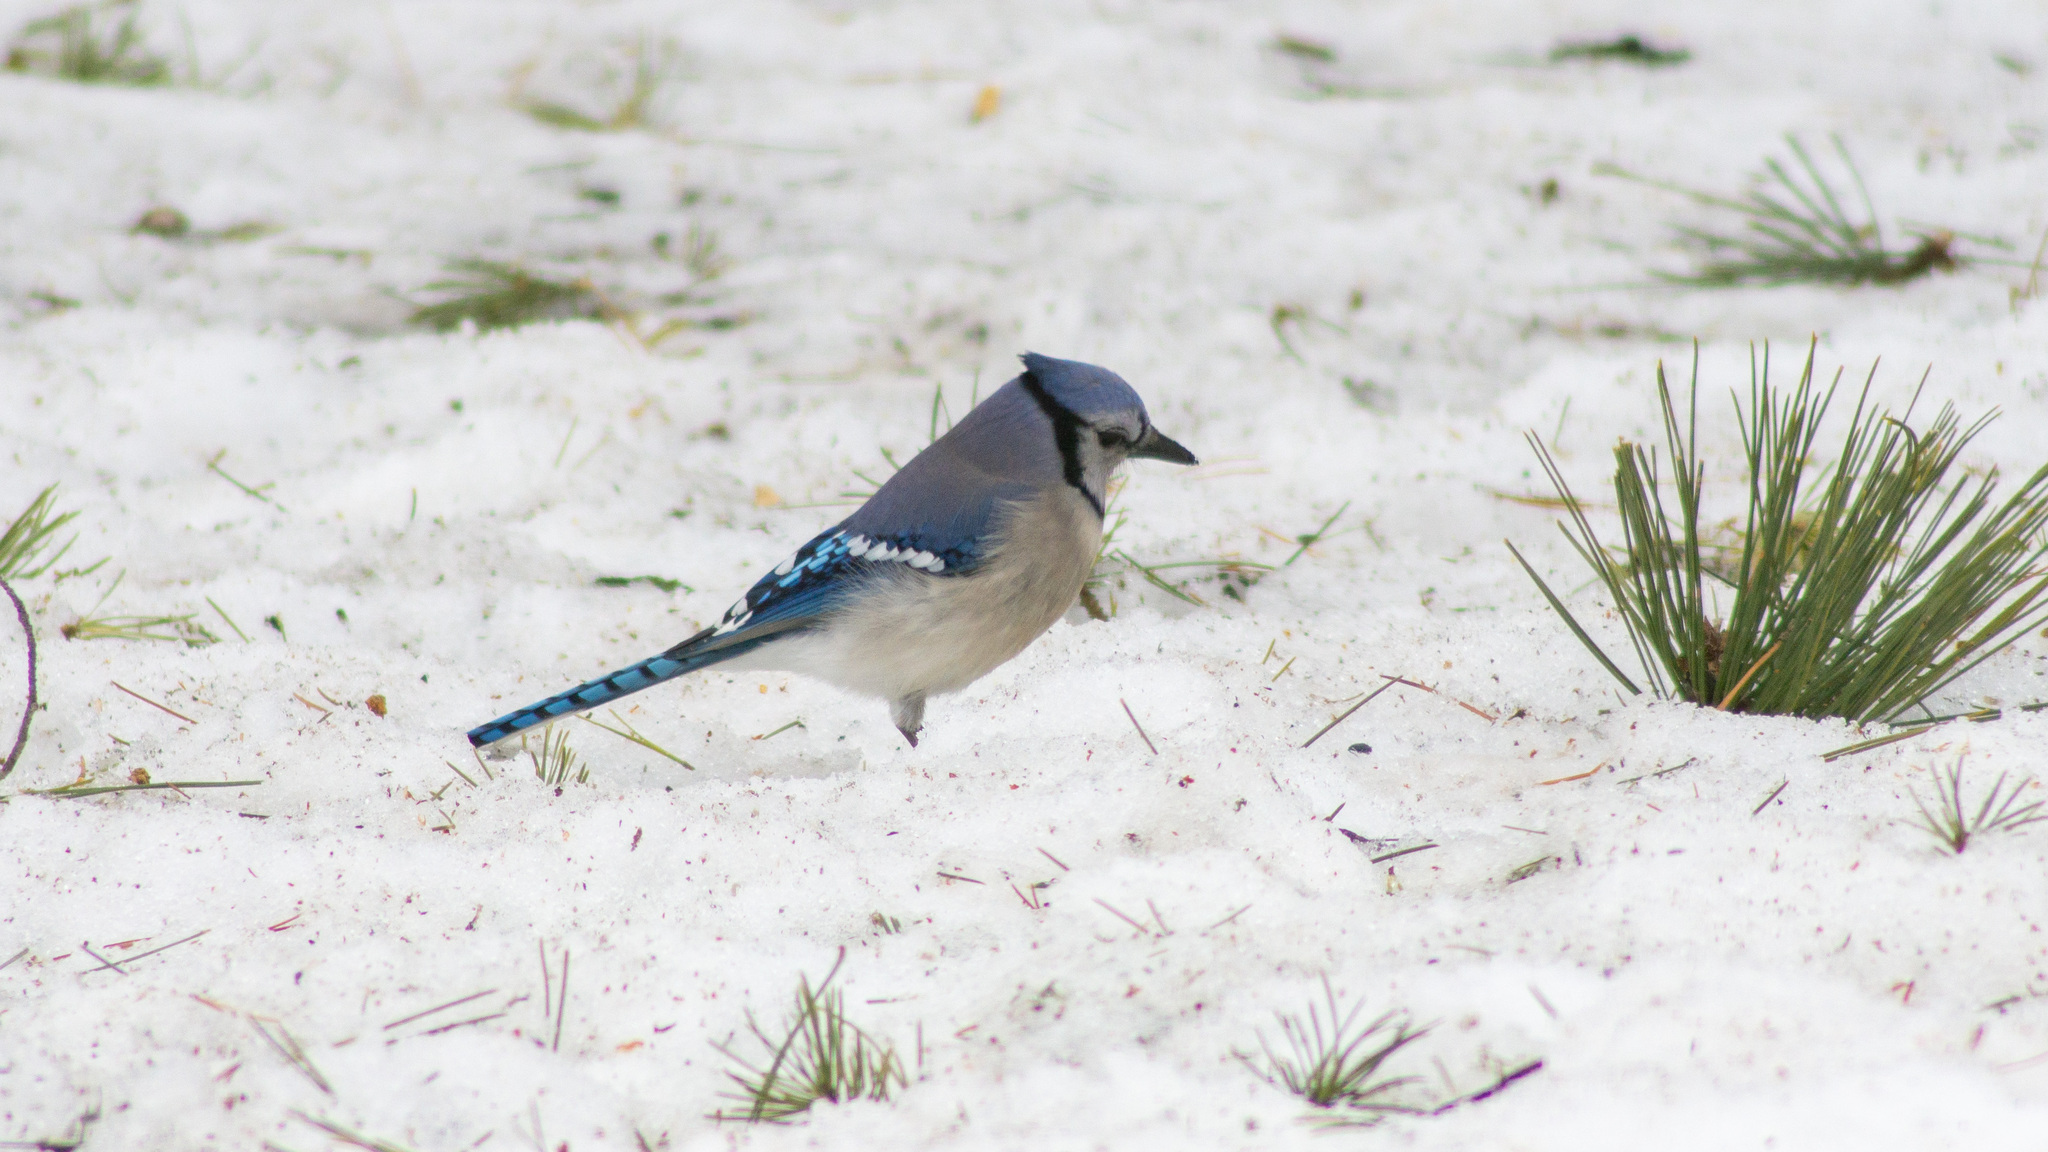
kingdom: Animalia
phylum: Chordata
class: Aves
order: Passeriformes
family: Corvidae
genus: Cyanocitta
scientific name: Cyanocitta cristata
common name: Blue jay
